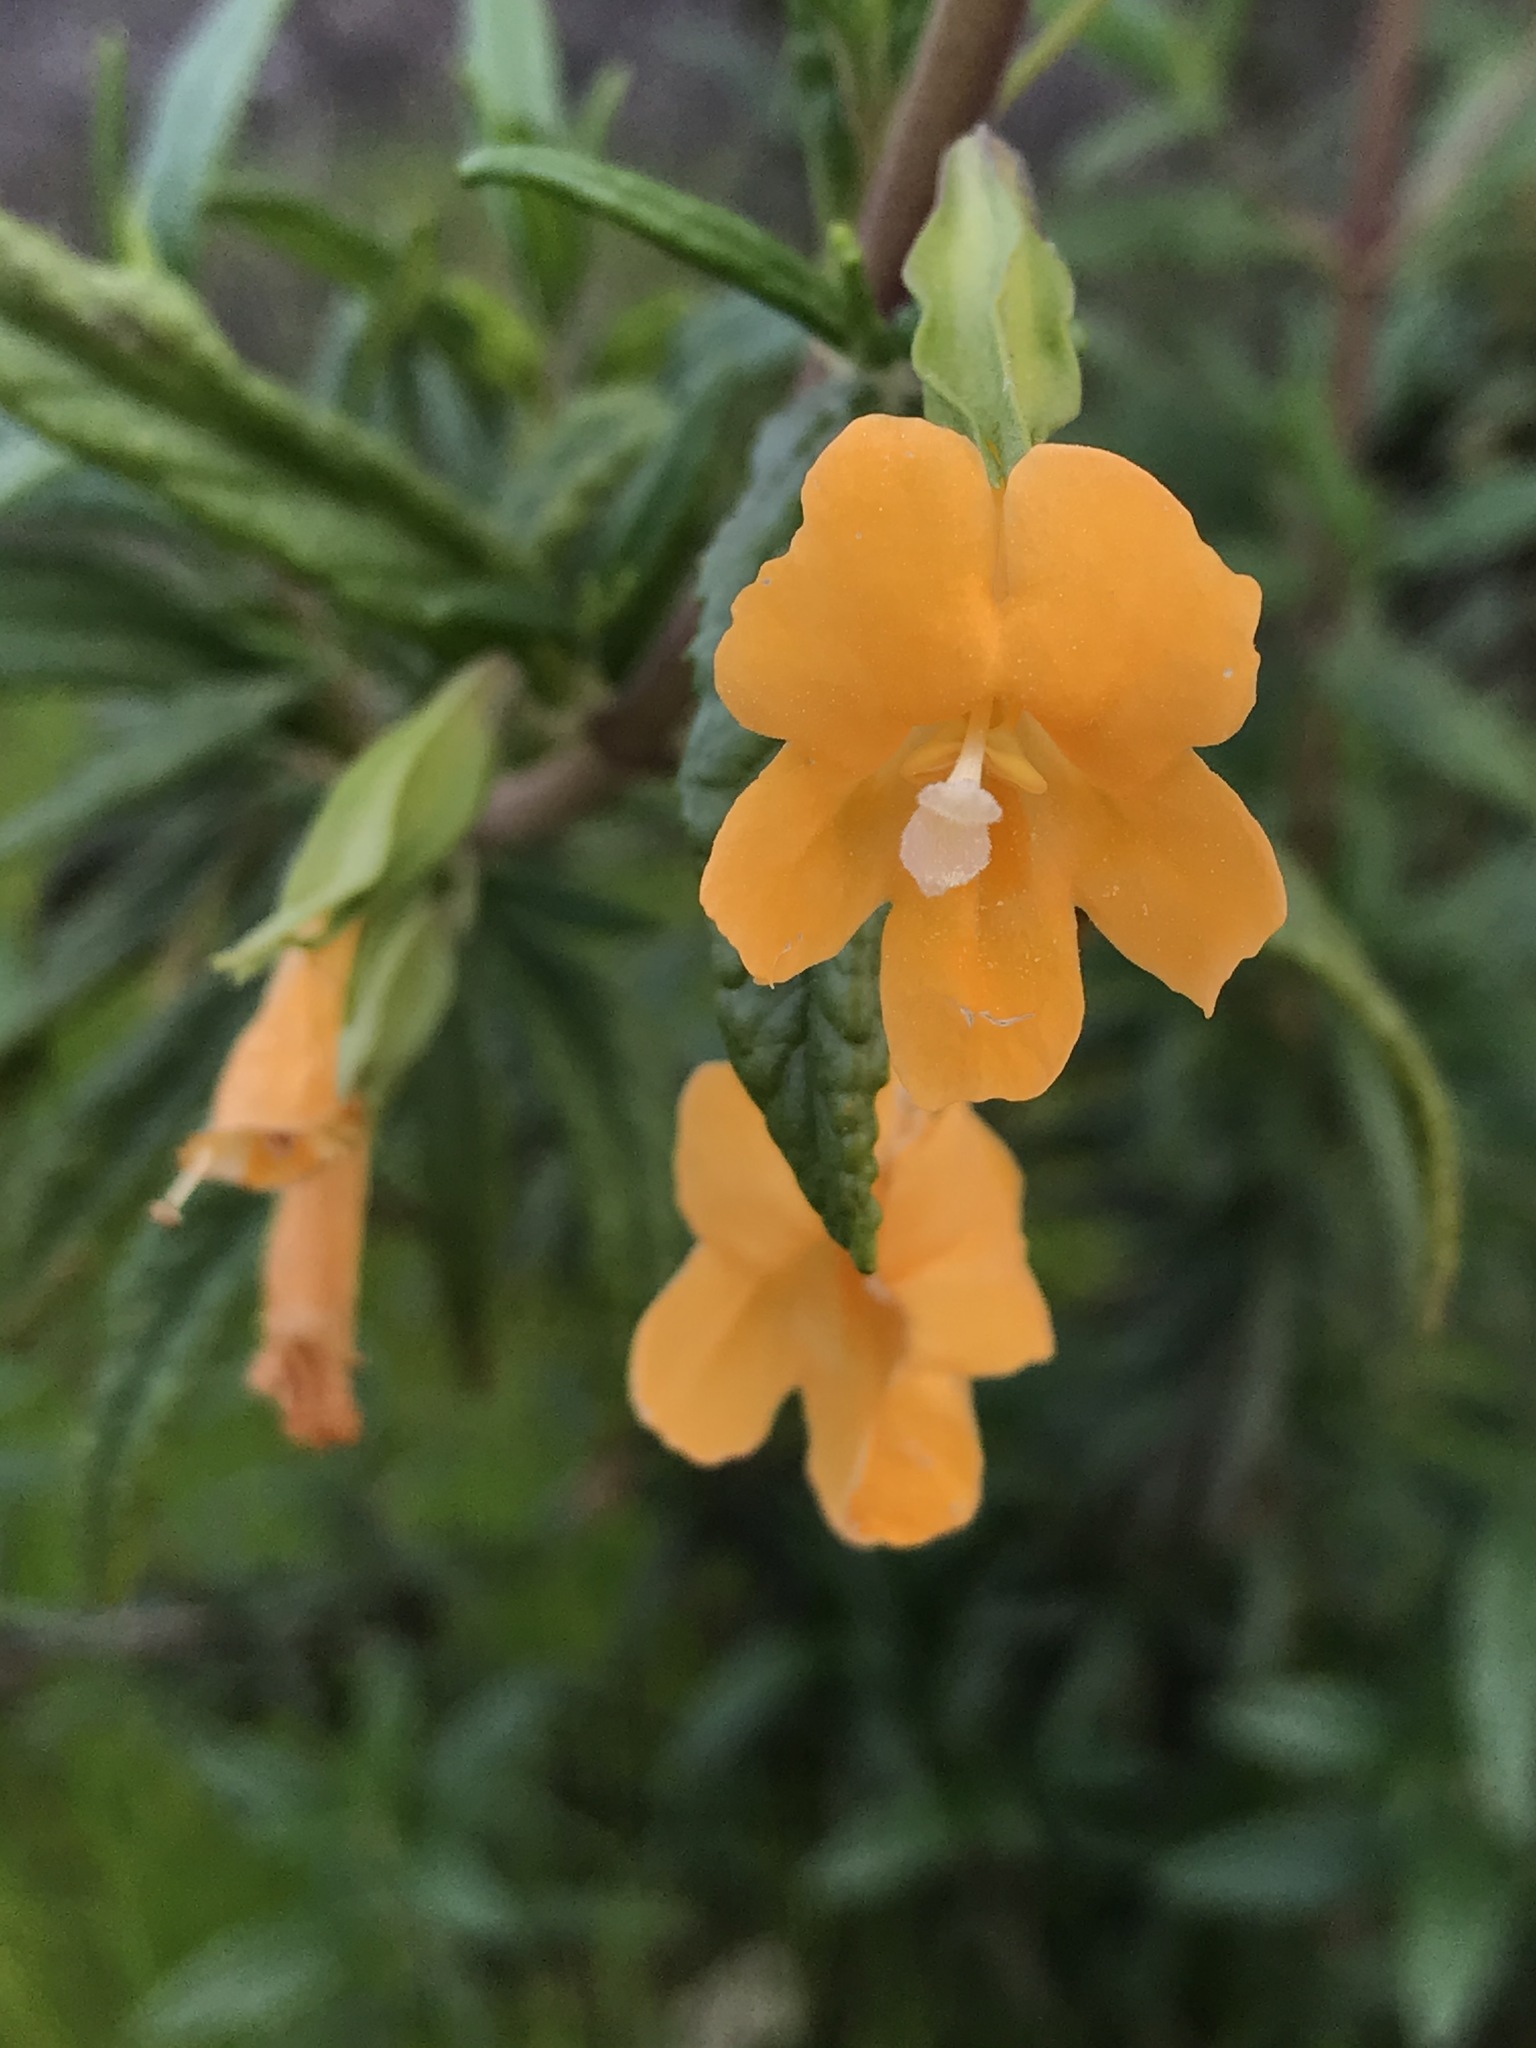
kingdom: Plantae
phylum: Tracheophyta
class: Magnoliopsida
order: Lamiales
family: Phrymaceae
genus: Diplacus
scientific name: Diplacus aurantiacus
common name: Bush monkey-flower
